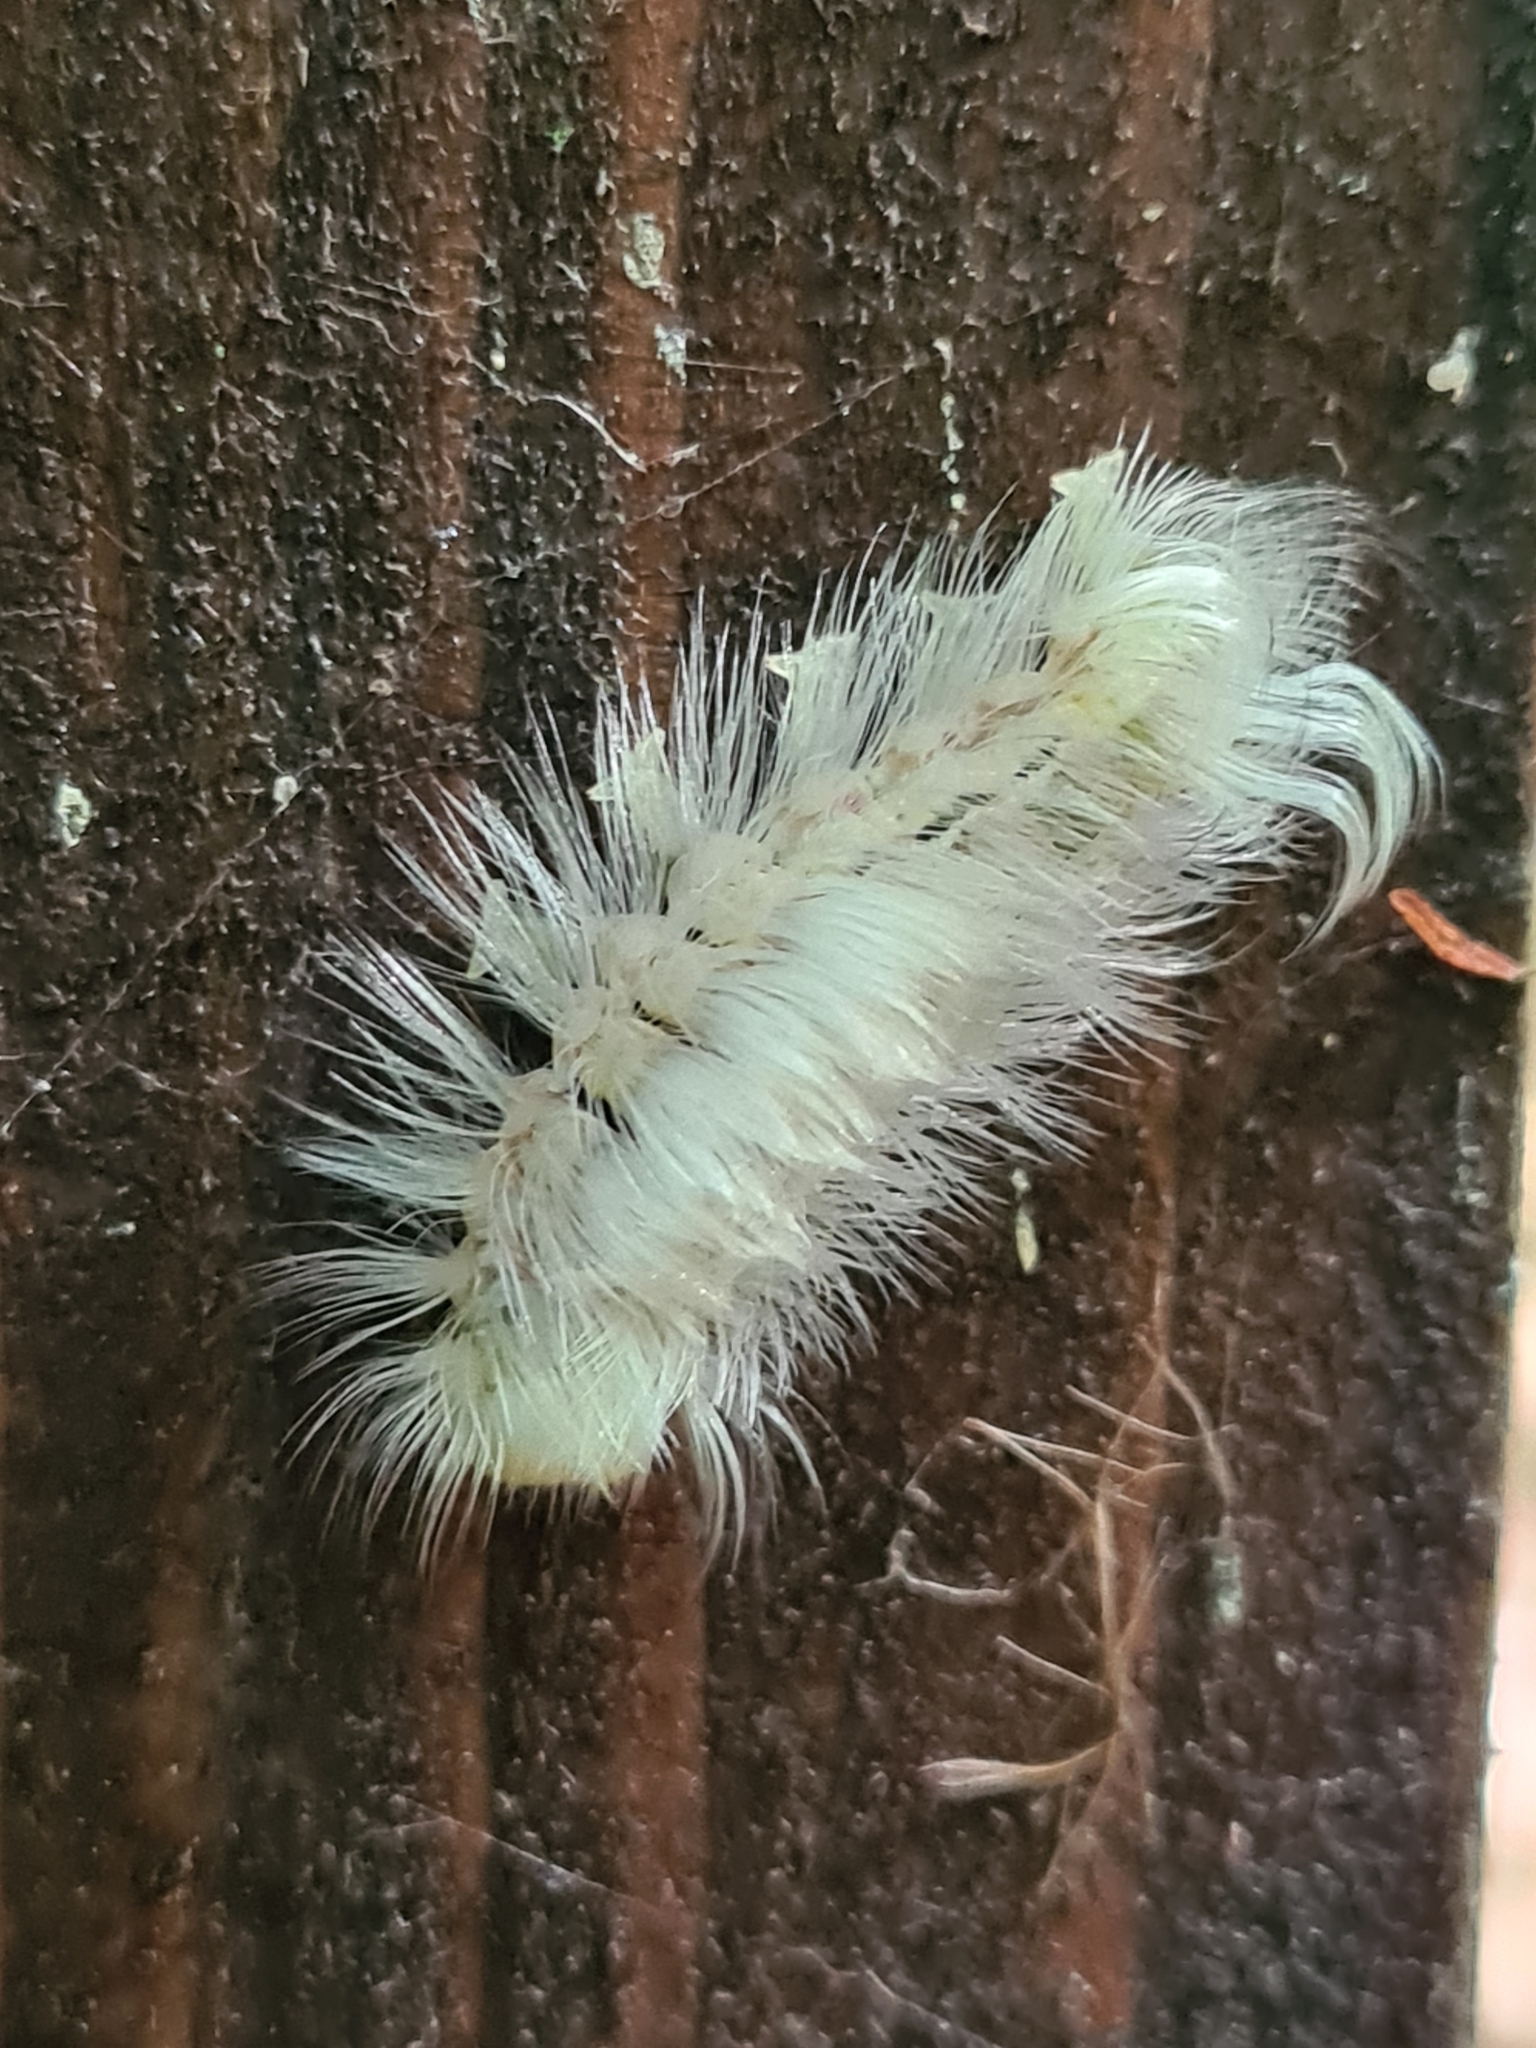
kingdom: Animalia
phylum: Arthropoda
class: Insecta
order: Lepidoptera
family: Erebidae
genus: Calliteara
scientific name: Calliteara pudibunda
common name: Pale tussock
